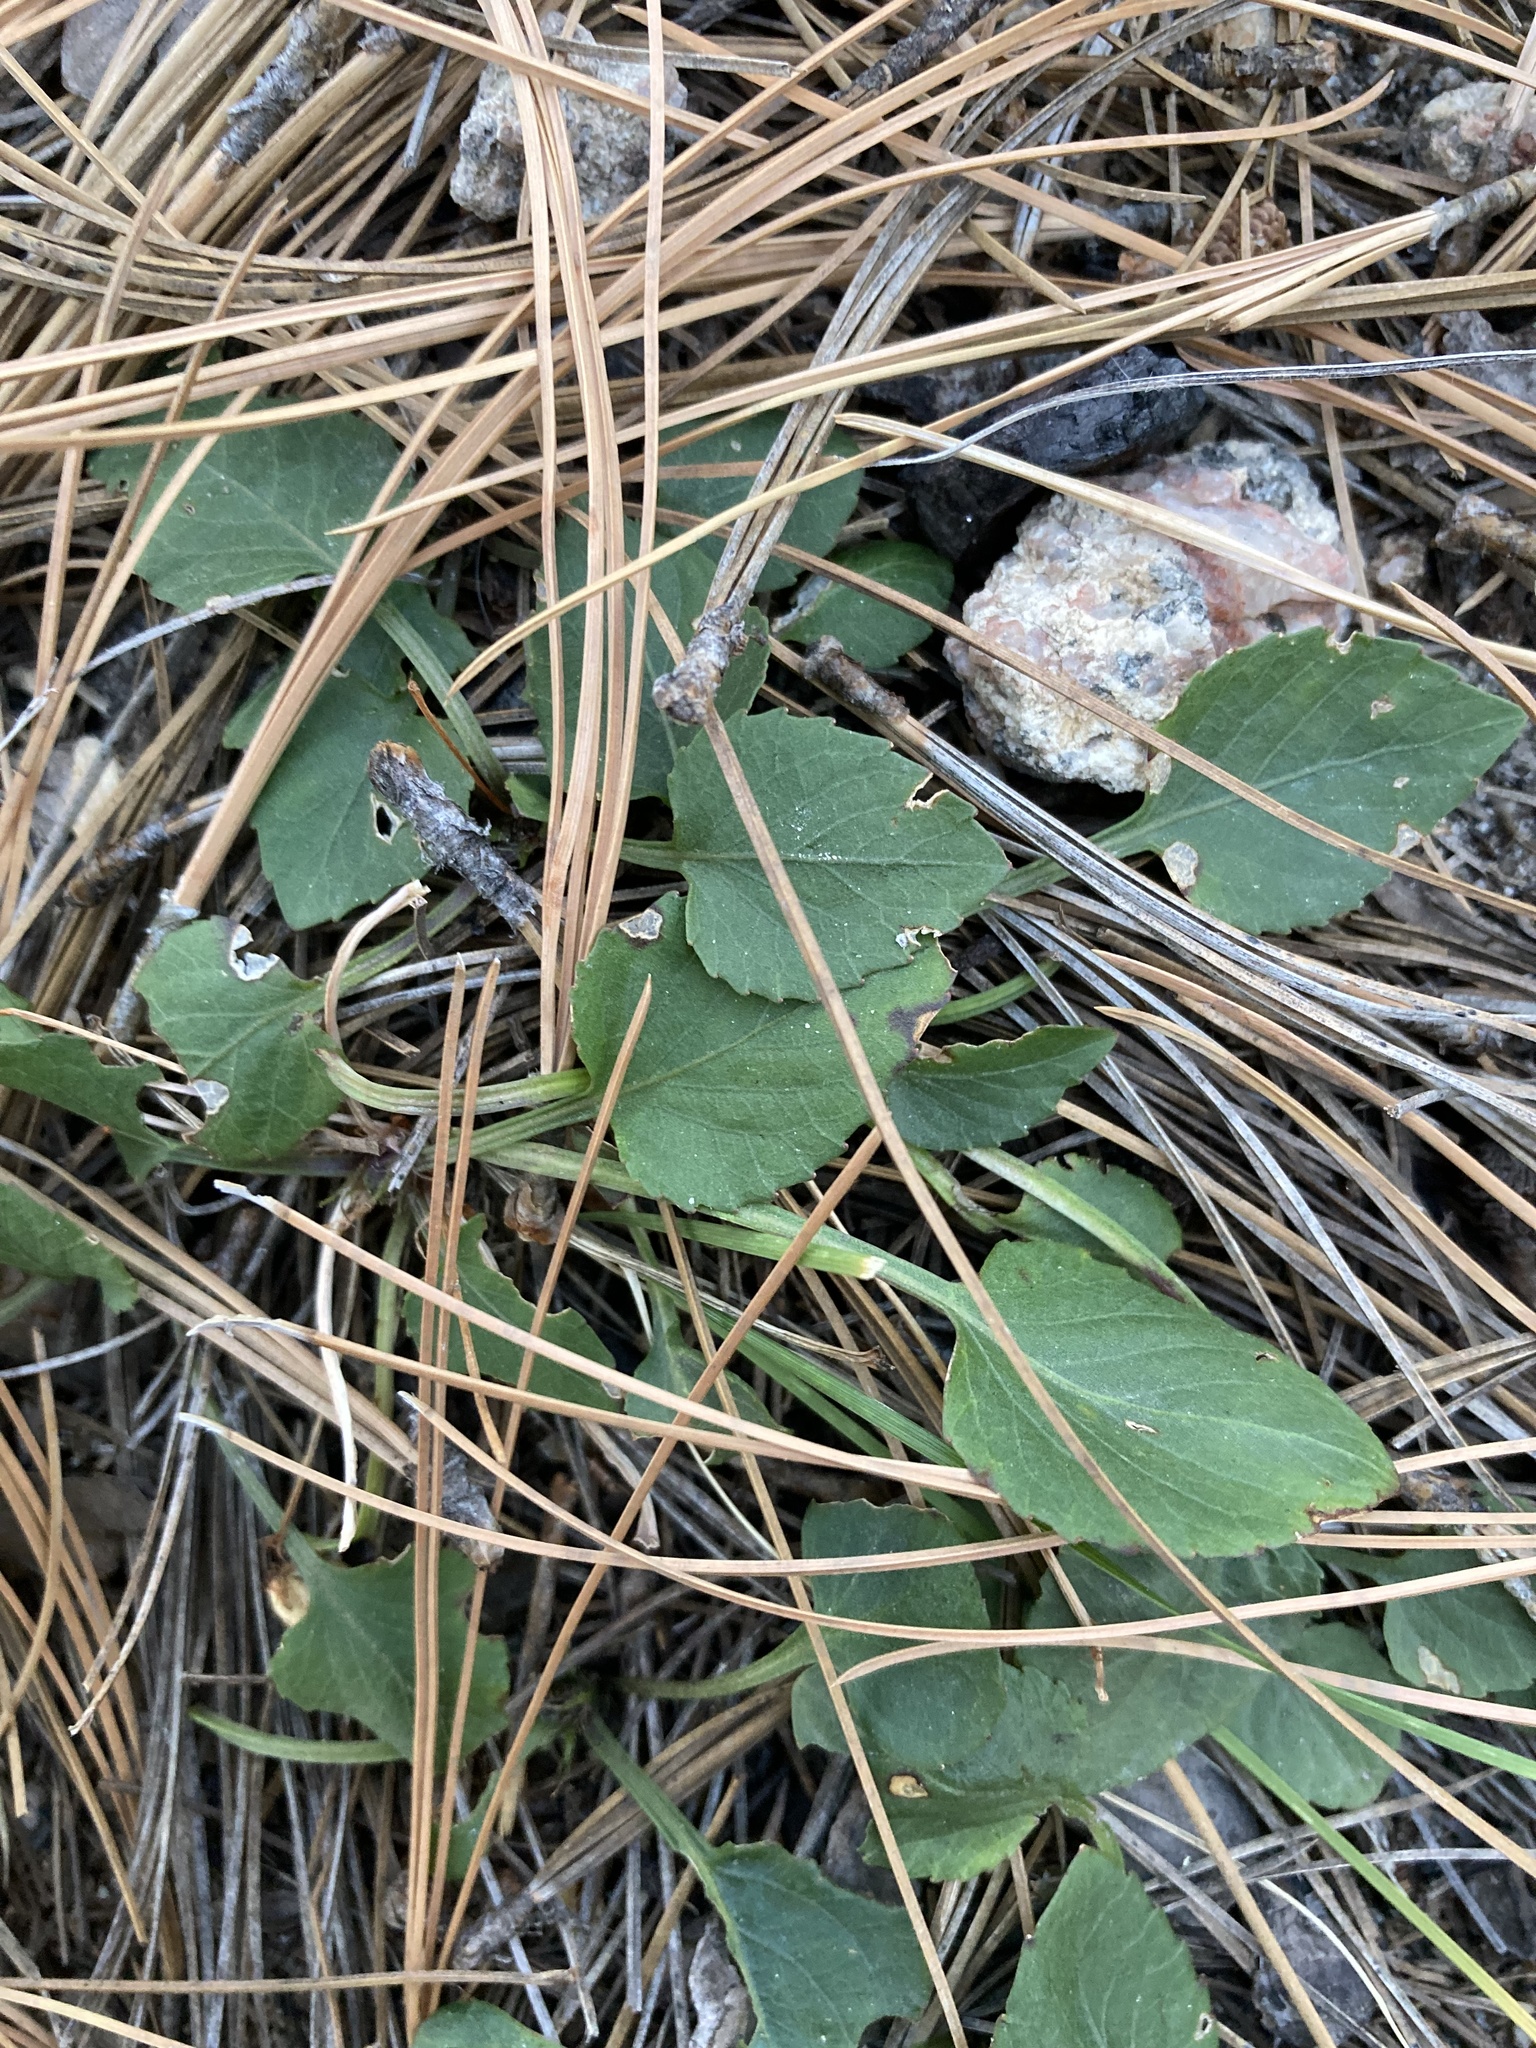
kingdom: Plantae
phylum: Tracheophyta
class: Magnoliopsida
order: Malpighiales
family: Violaceae
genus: Viola
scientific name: Viola umbraticola
